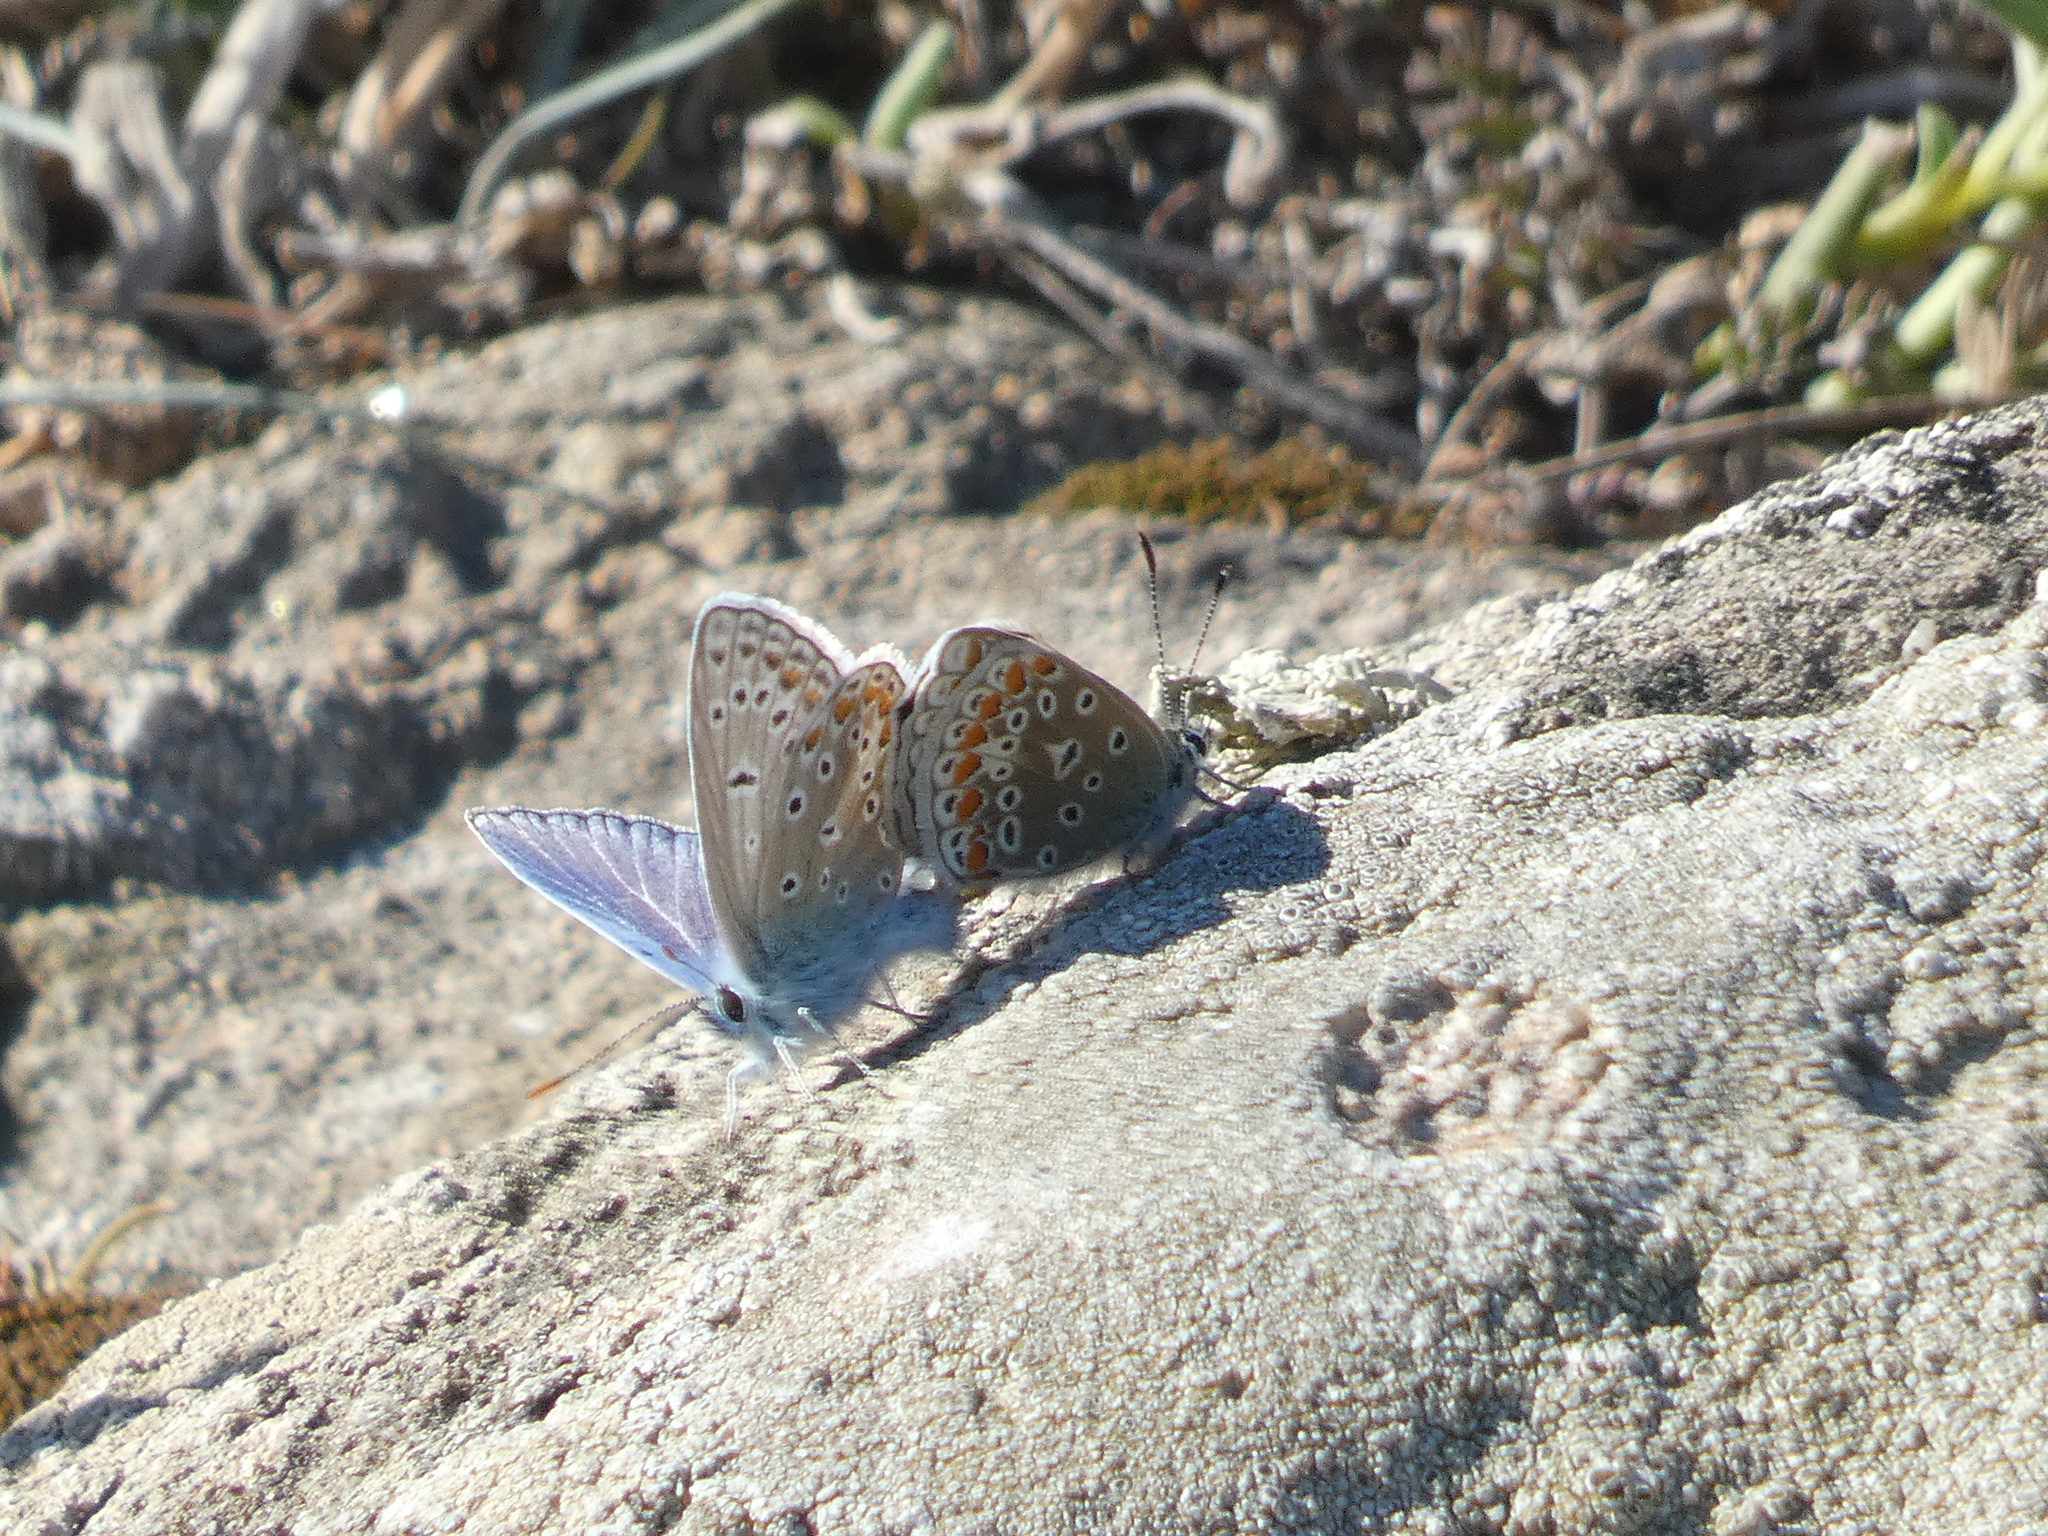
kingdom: Animalia
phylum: Arthropoda
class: Insecta
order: Lepidoptera
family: Lycaenidae
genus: Polyommatus
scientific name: Polyommatus icarus
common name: Common blue
